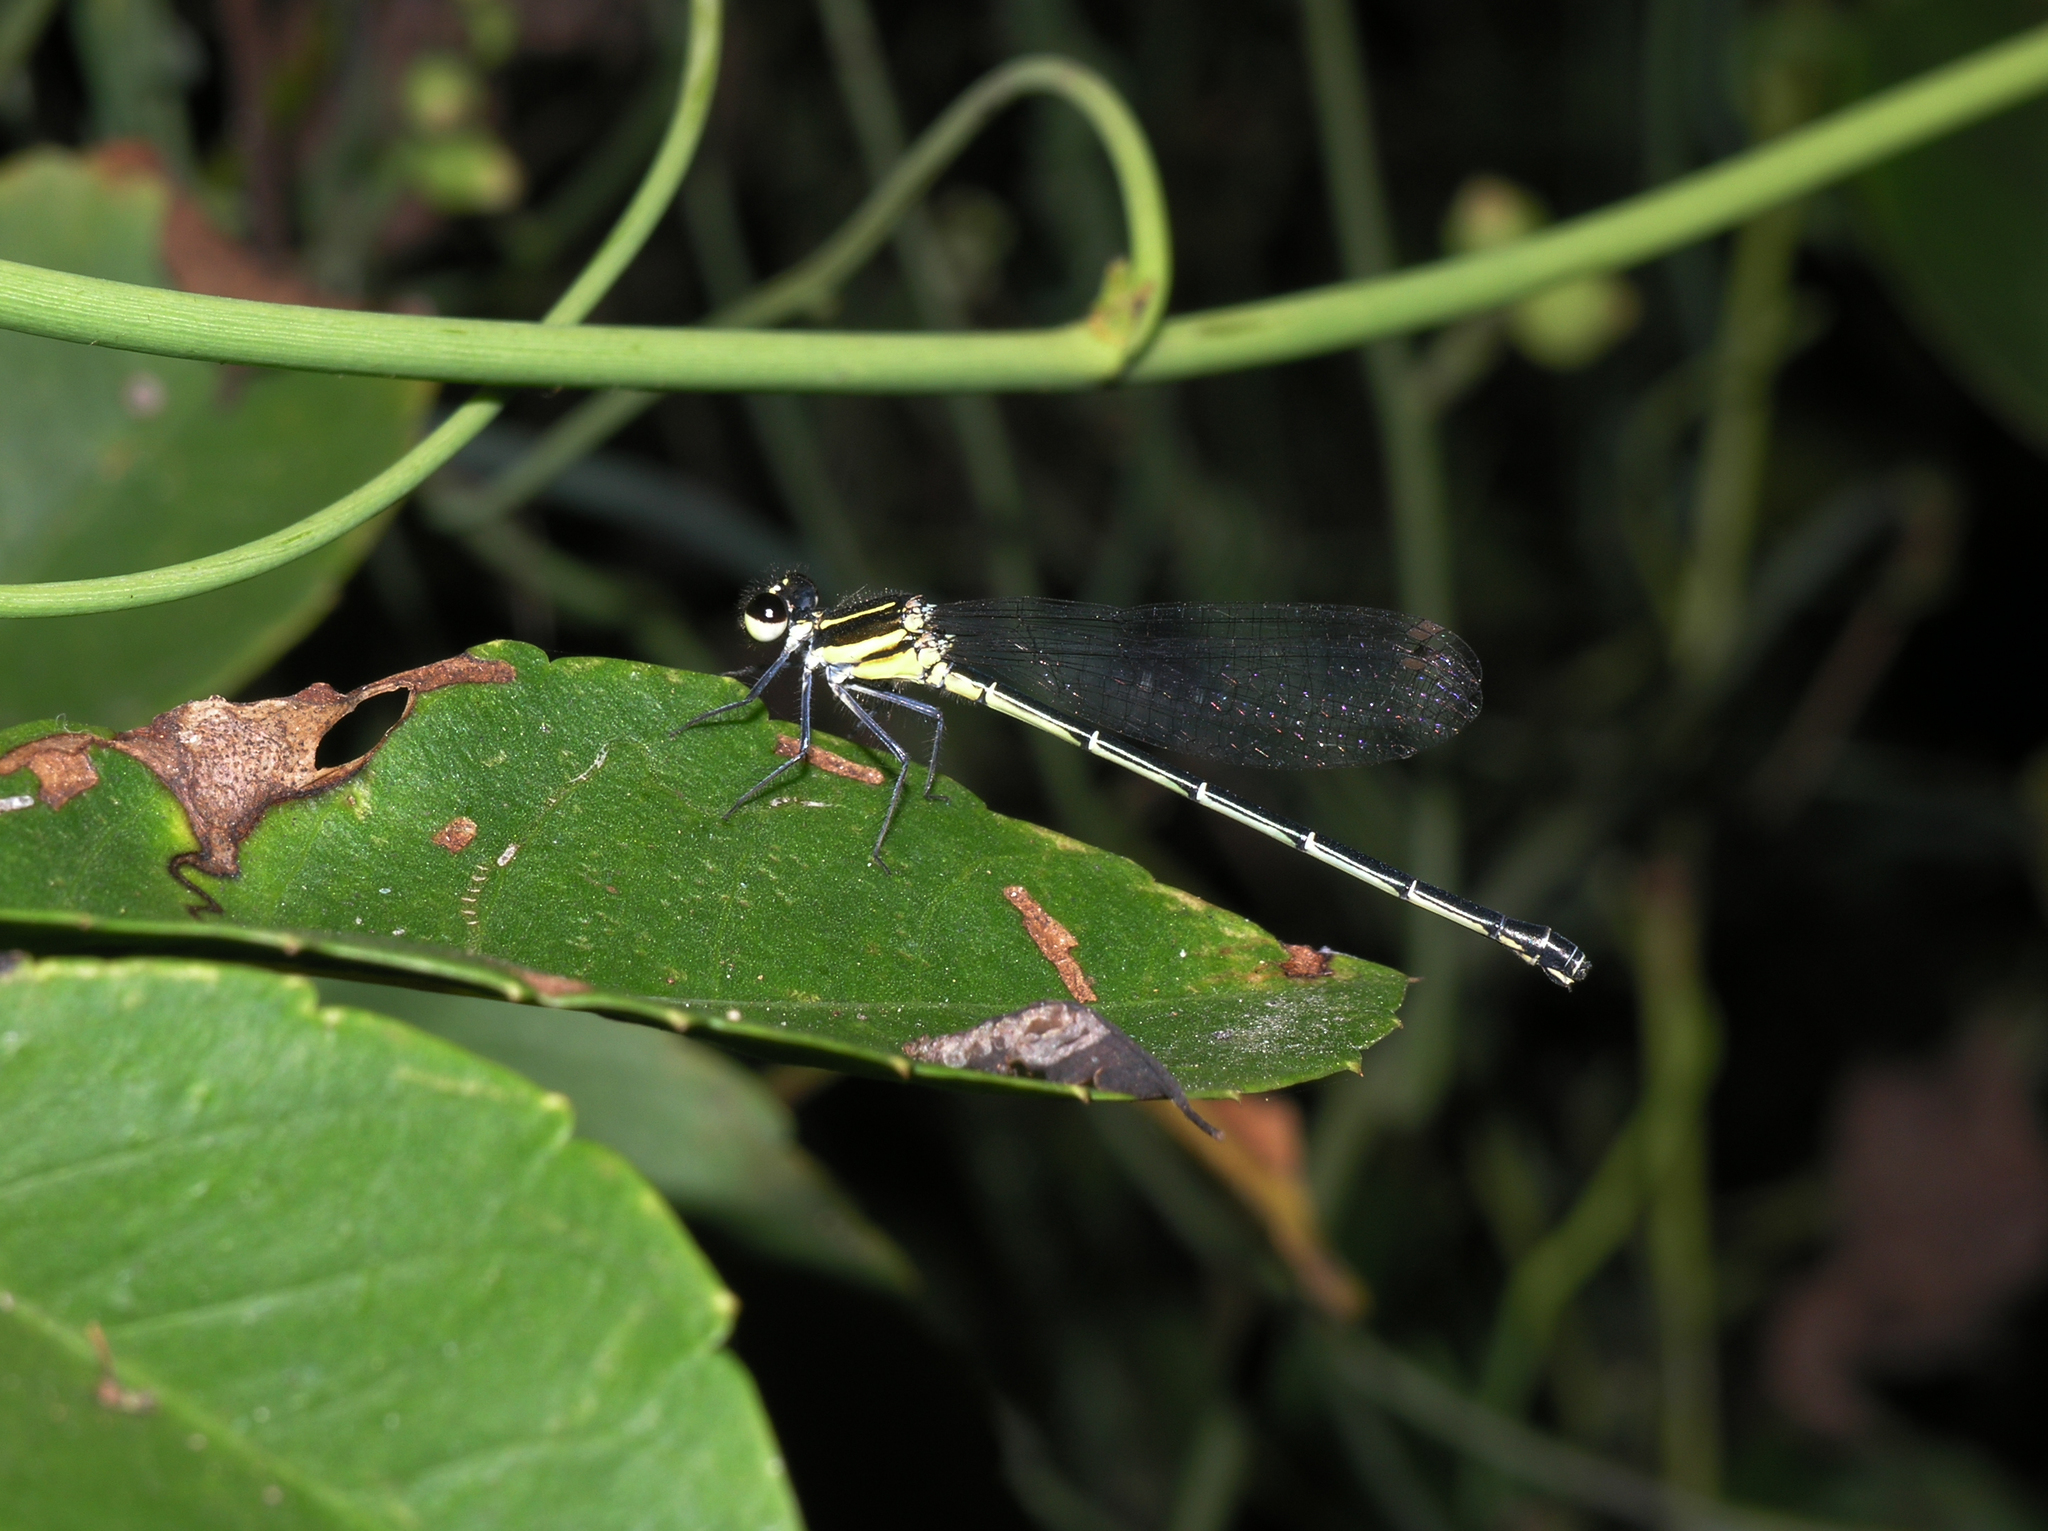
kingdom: Animalia
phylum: Arthropoda
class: Insecta
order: Odonata
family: Platycnemididae
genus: Onychargia
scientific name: Onychargia atrocyana
